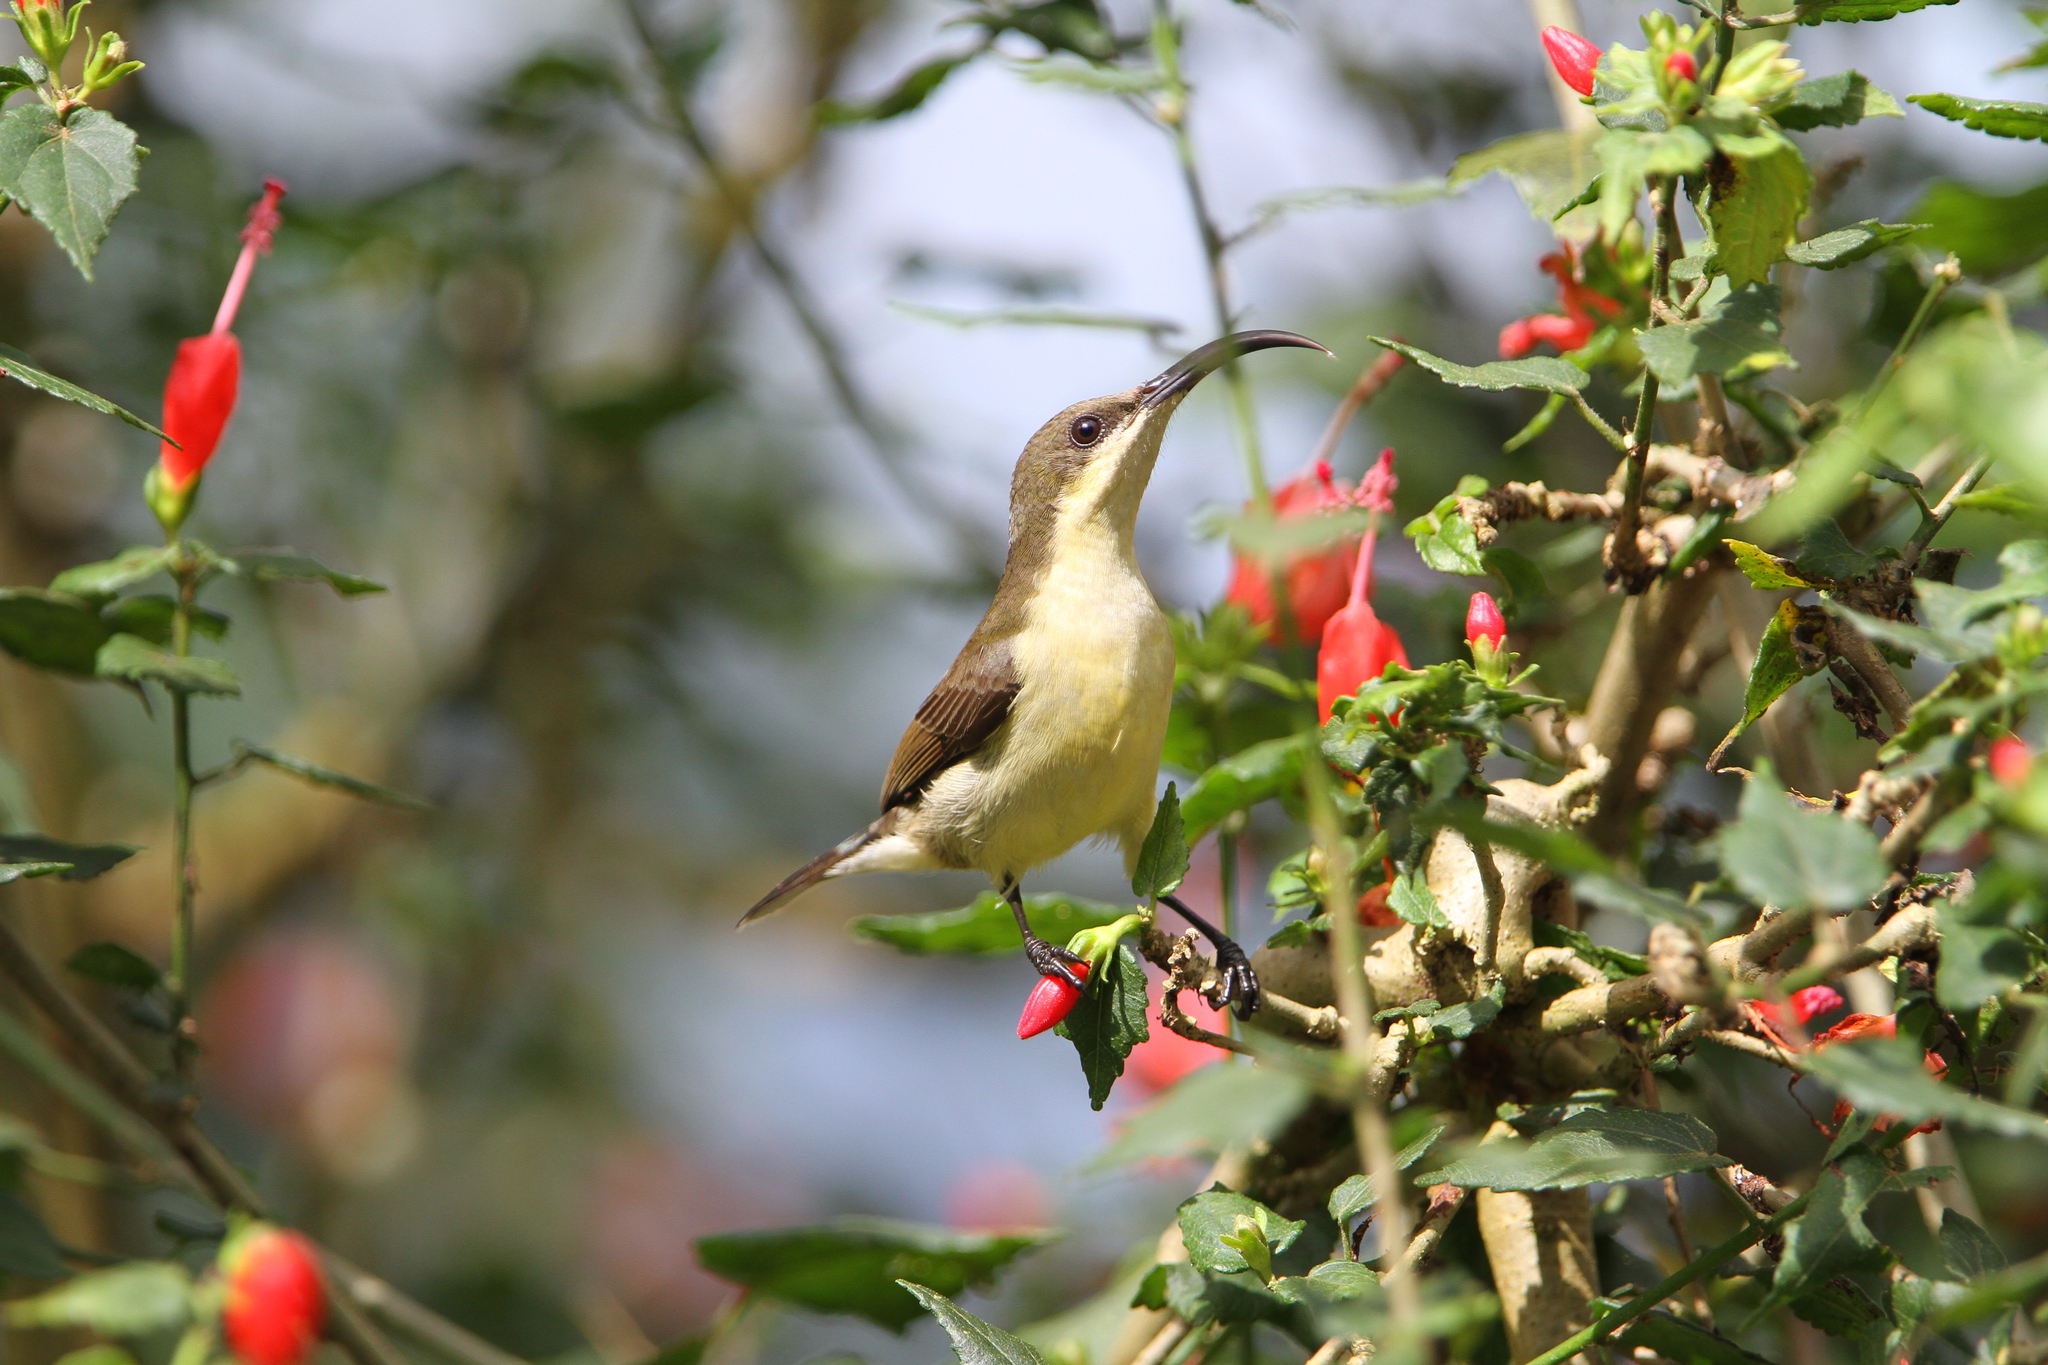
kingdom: Animalia
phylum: Chordata
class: Aves
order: Passeriformes
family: Nectariniidae
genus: Cinnyris
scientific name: Cinnyris lotenius
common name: Loten's sunbird
